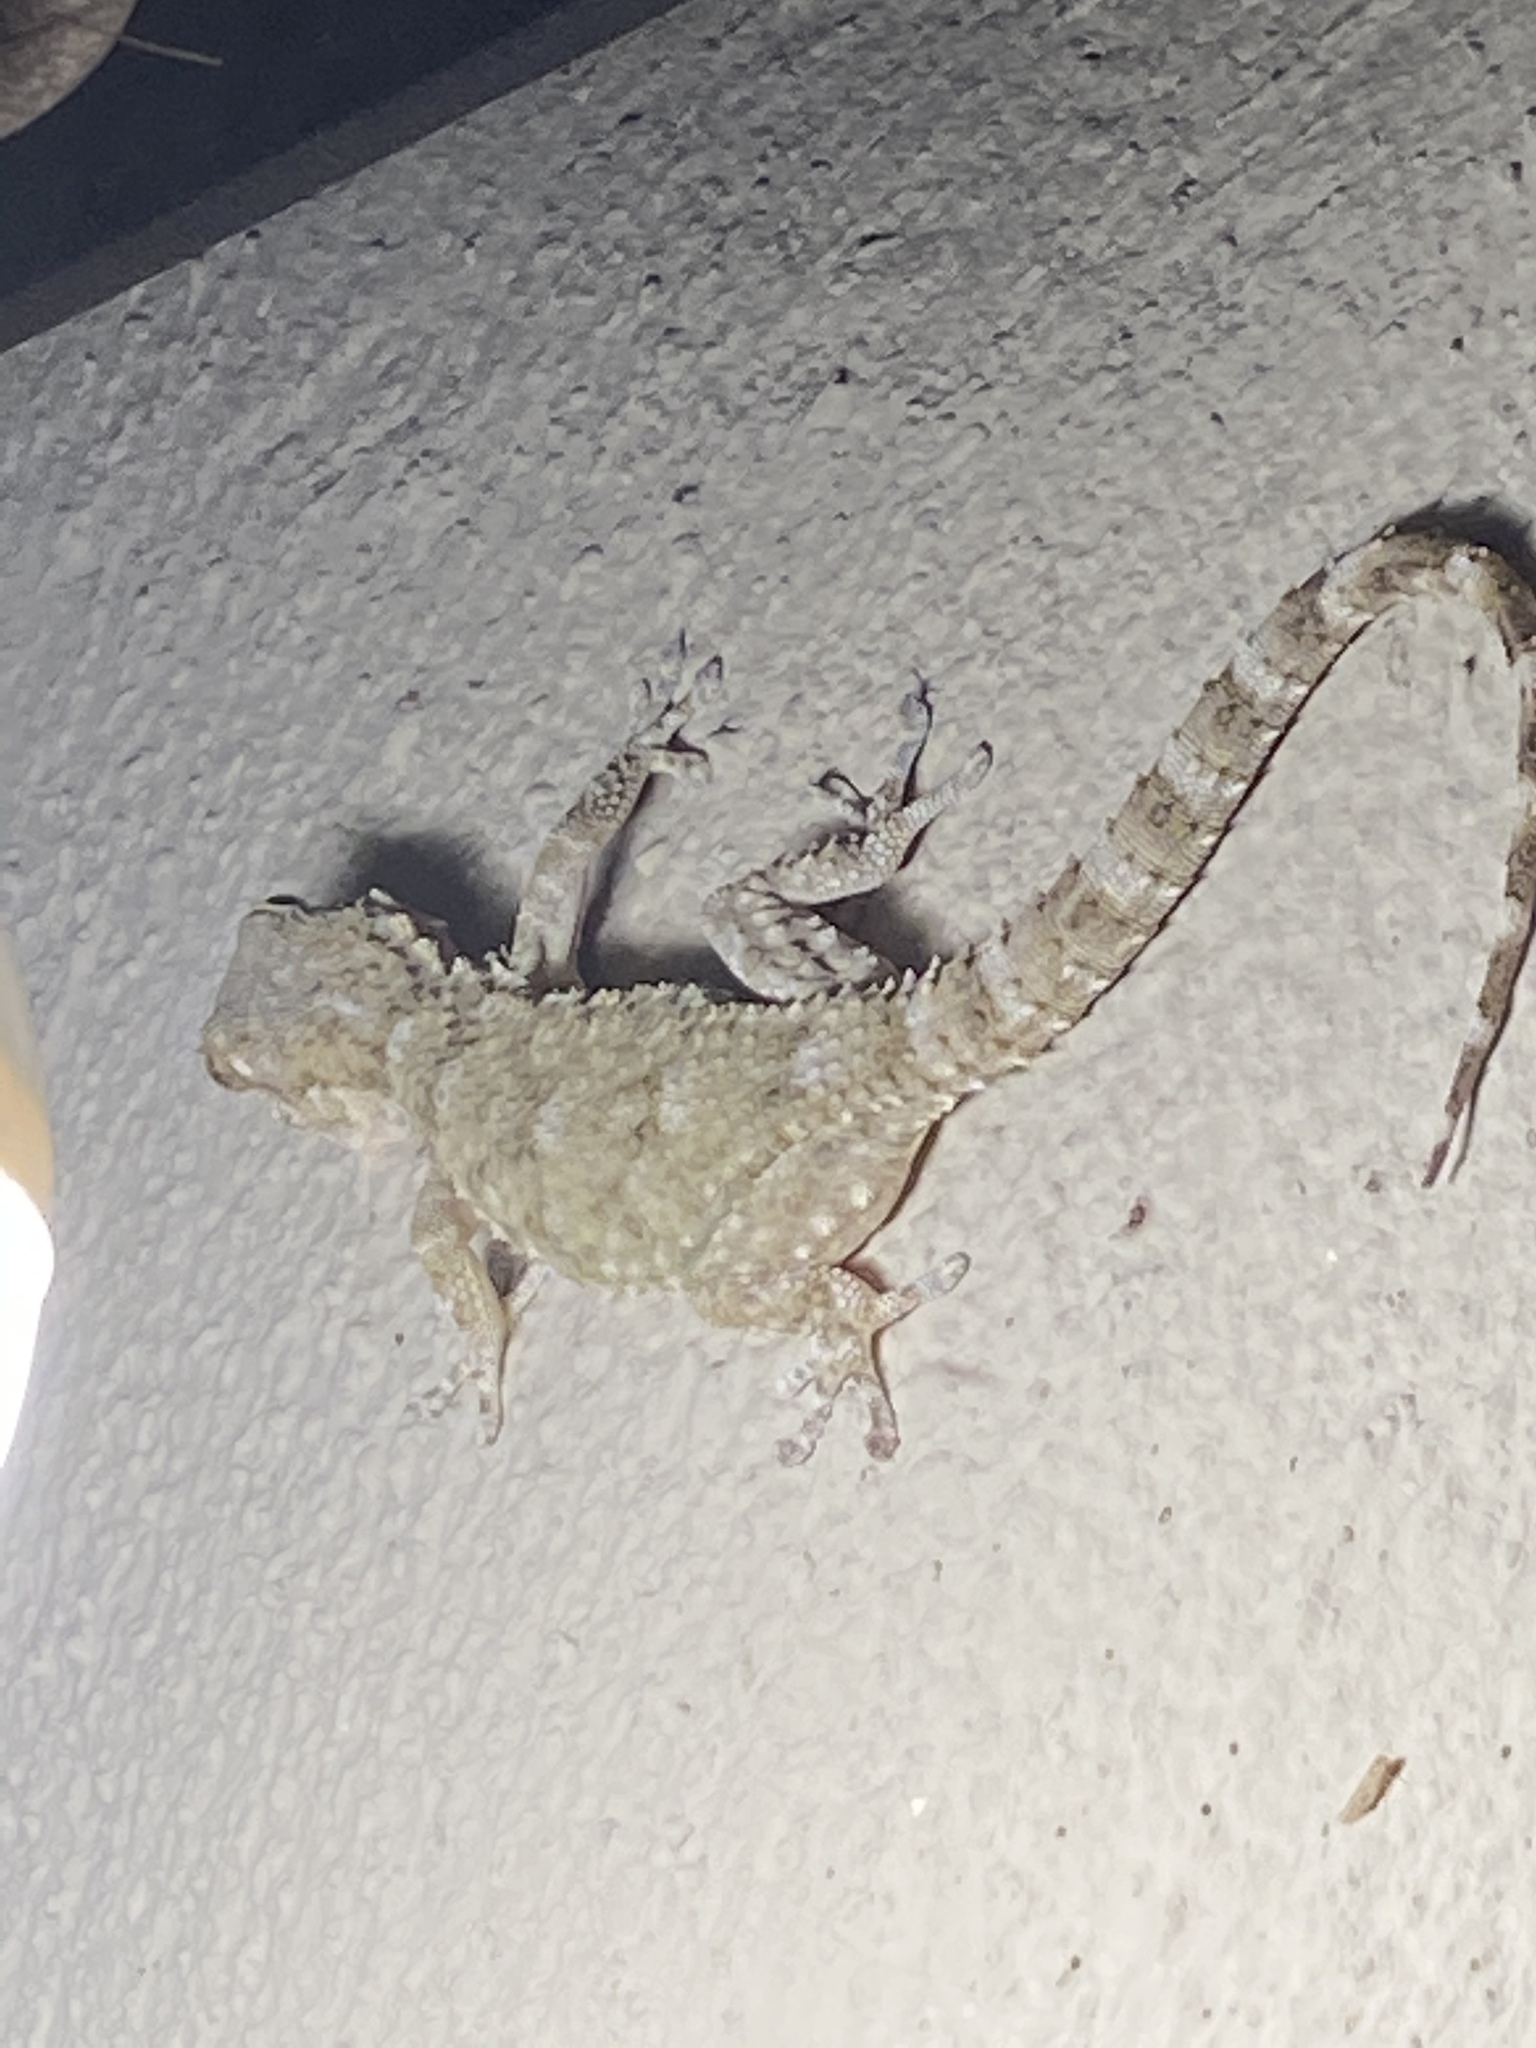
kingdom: Animalia
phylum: Chordata
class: Squamata
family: Phyllodactylidae
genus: Tarentola
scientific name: Tarentola mauritanica
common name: Moorish gecko
